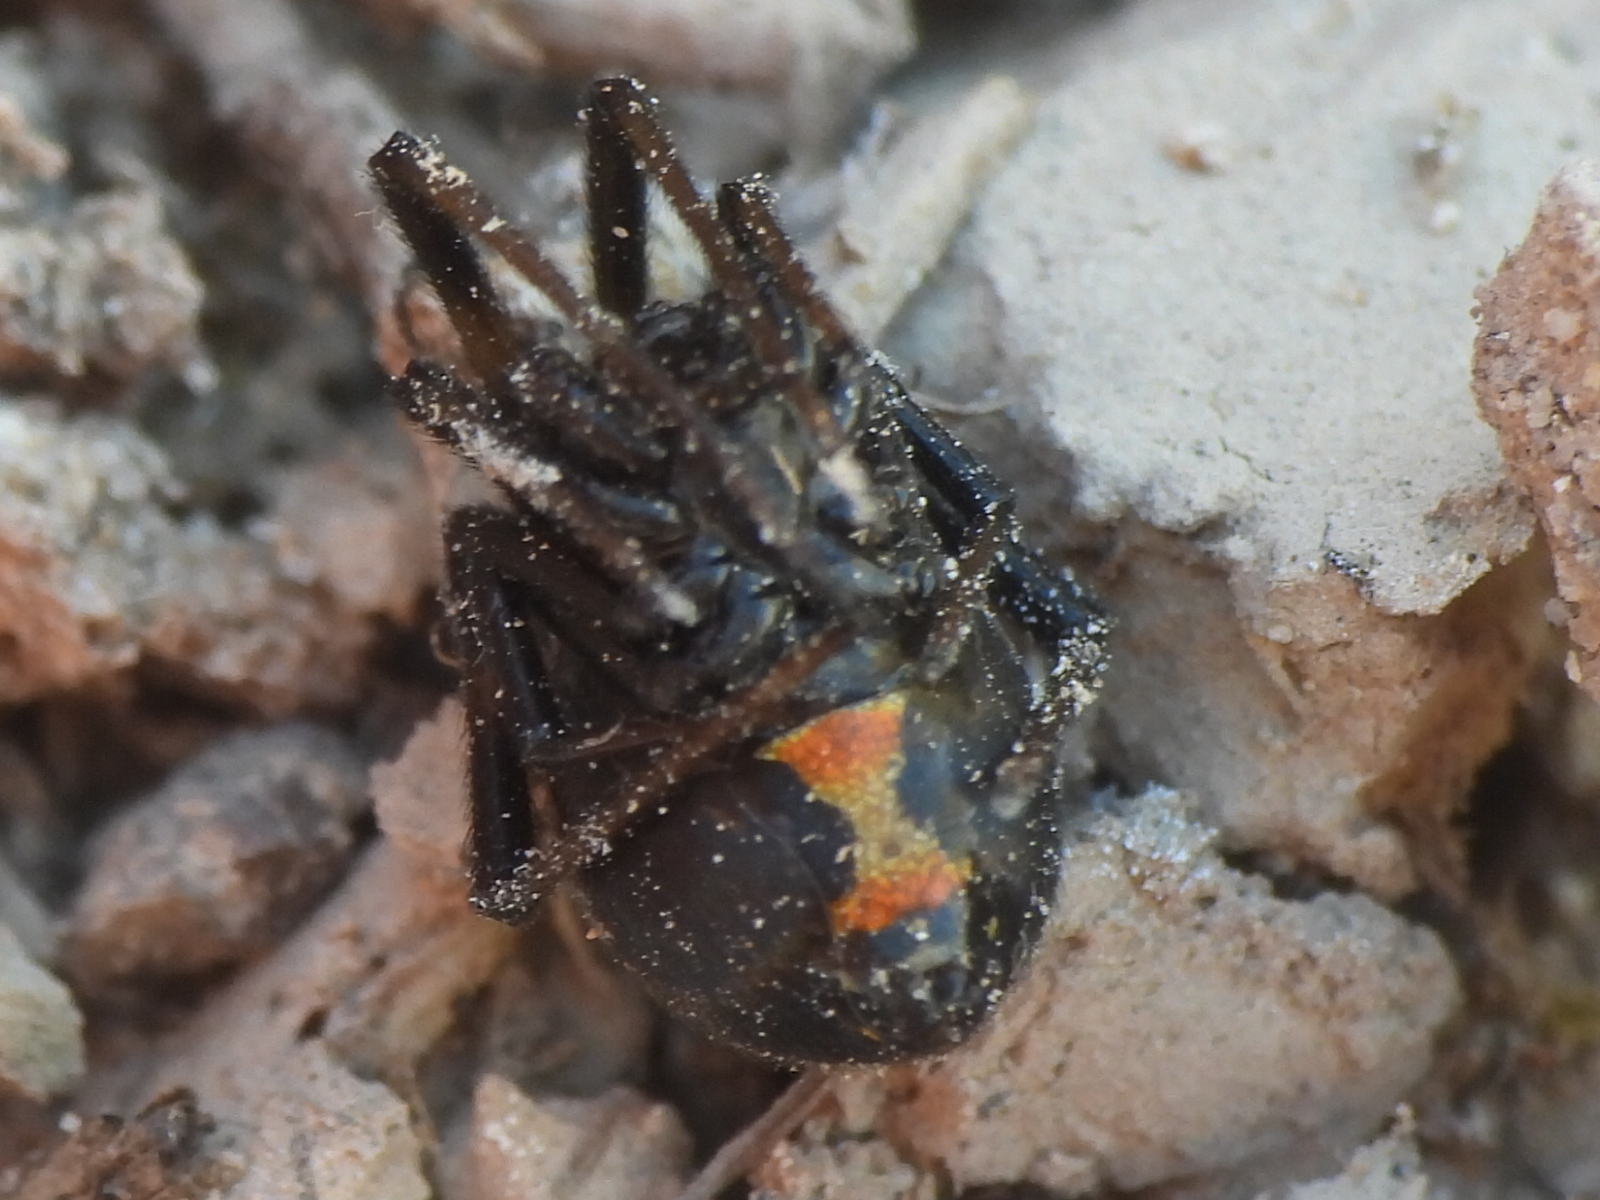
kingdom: Animalia
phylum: Arthropoda
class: Arachnida
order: Araneae
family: Theridiidae
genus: Latrodectus
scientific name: Latrodectus hesperus
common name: Western black widow
